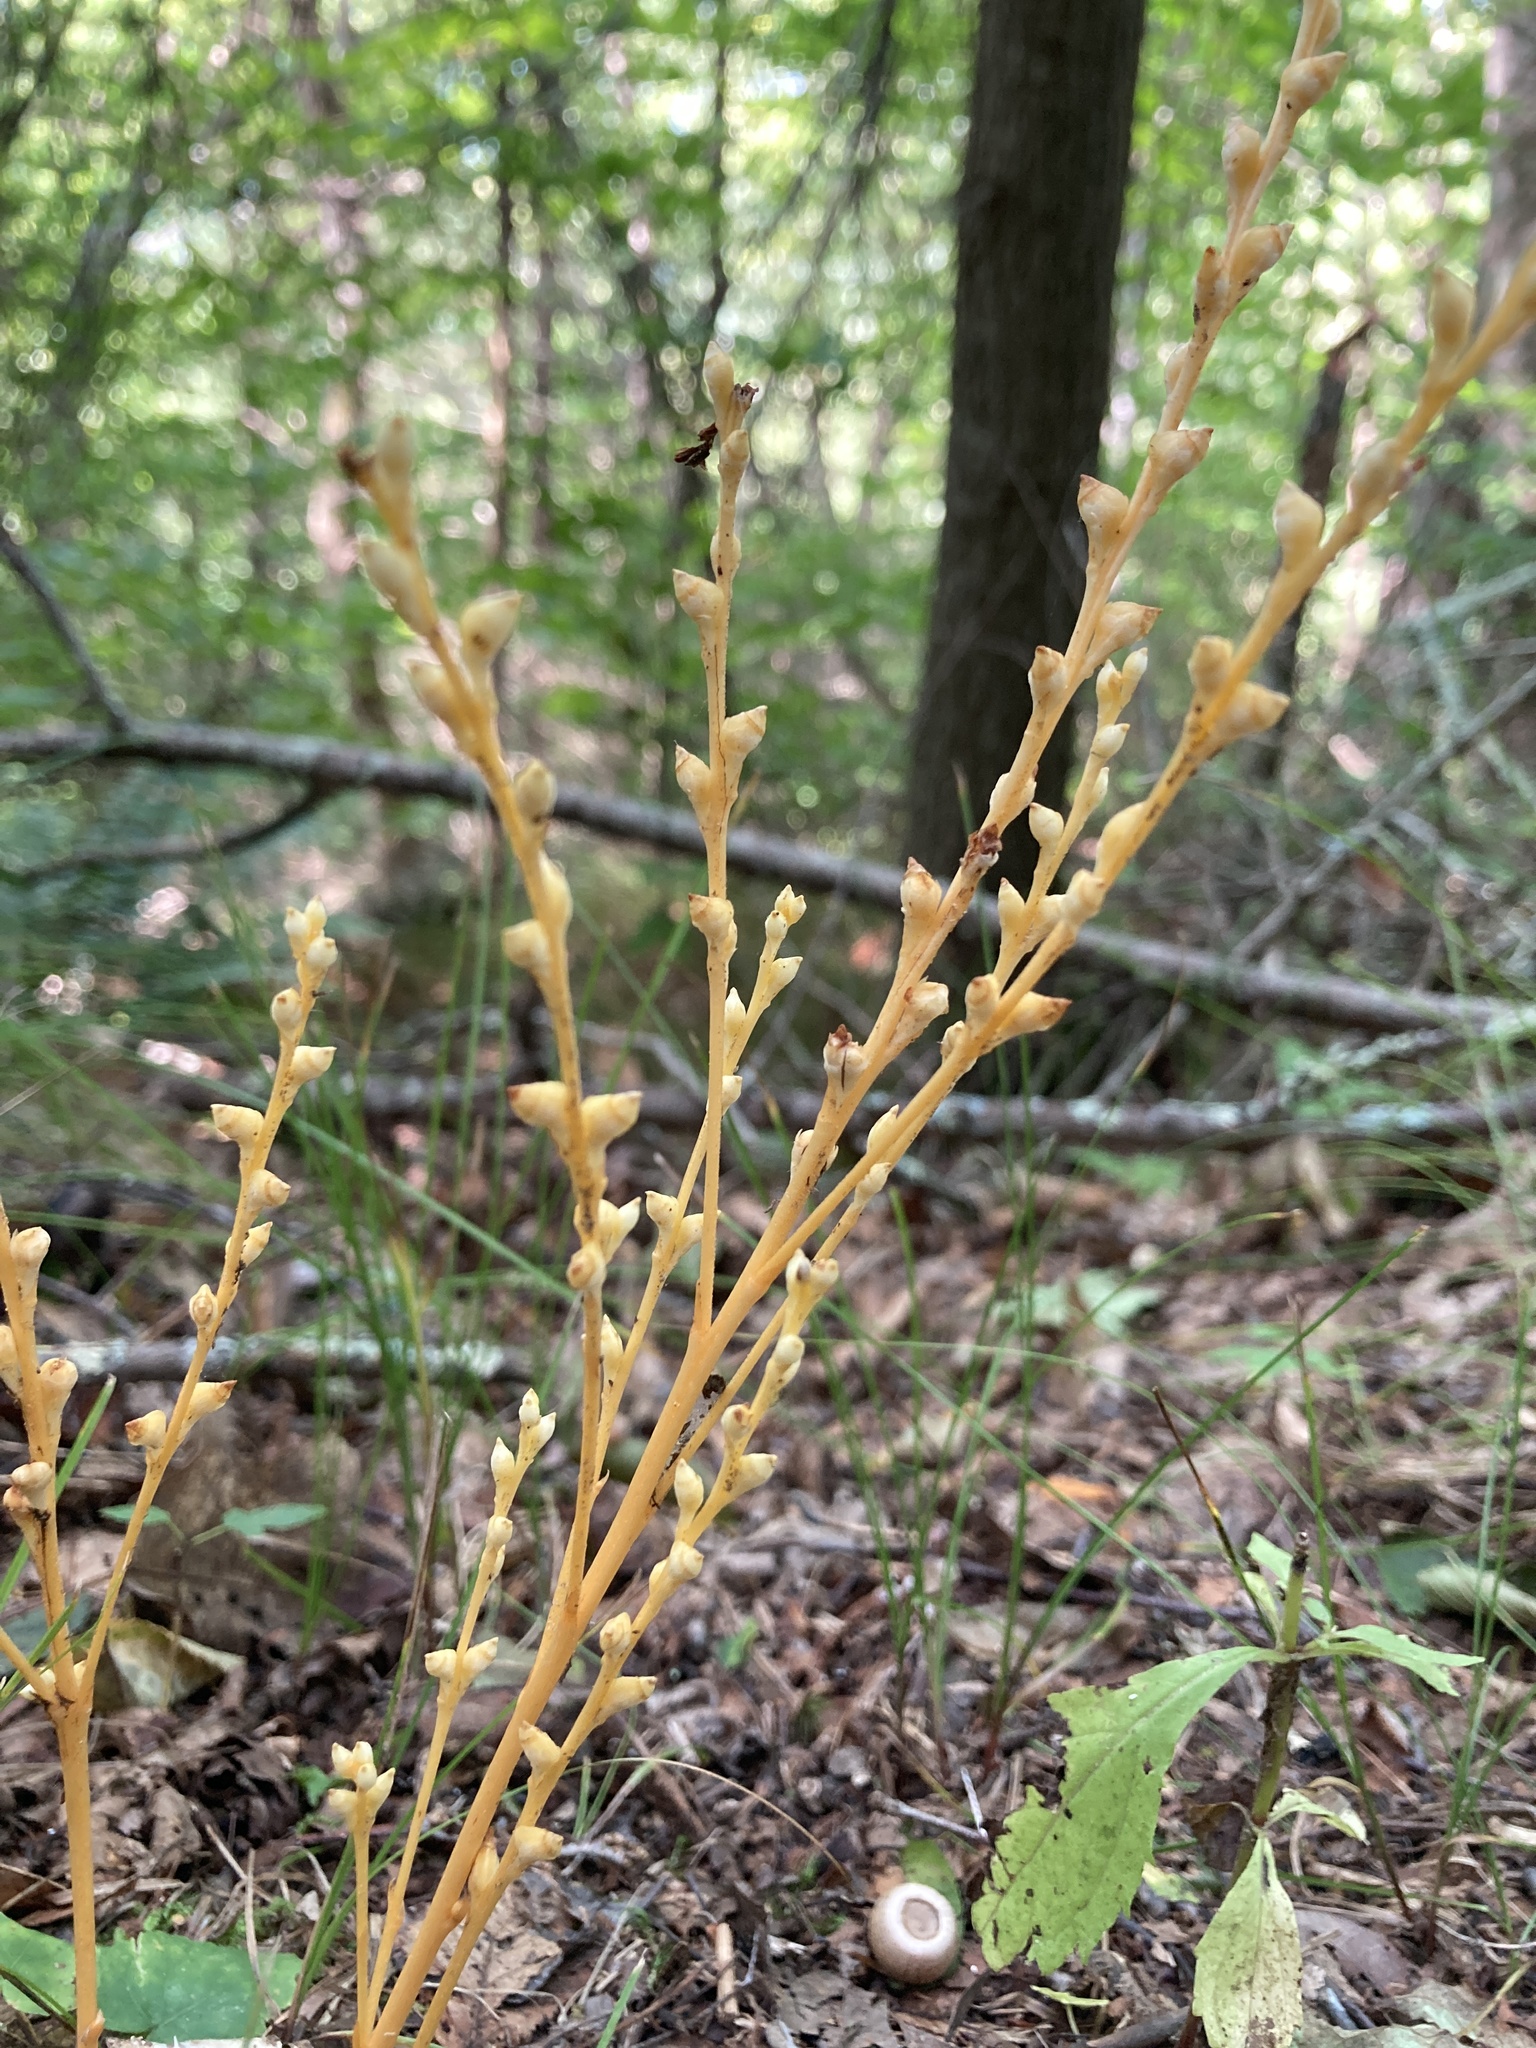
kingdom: Plantae
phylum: Tracheophyta
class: Magnoliopsida
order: Lamiales
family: Orobanchaceae
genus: Epifagus
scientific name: Epifagus virginiana
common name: Beechdrops
